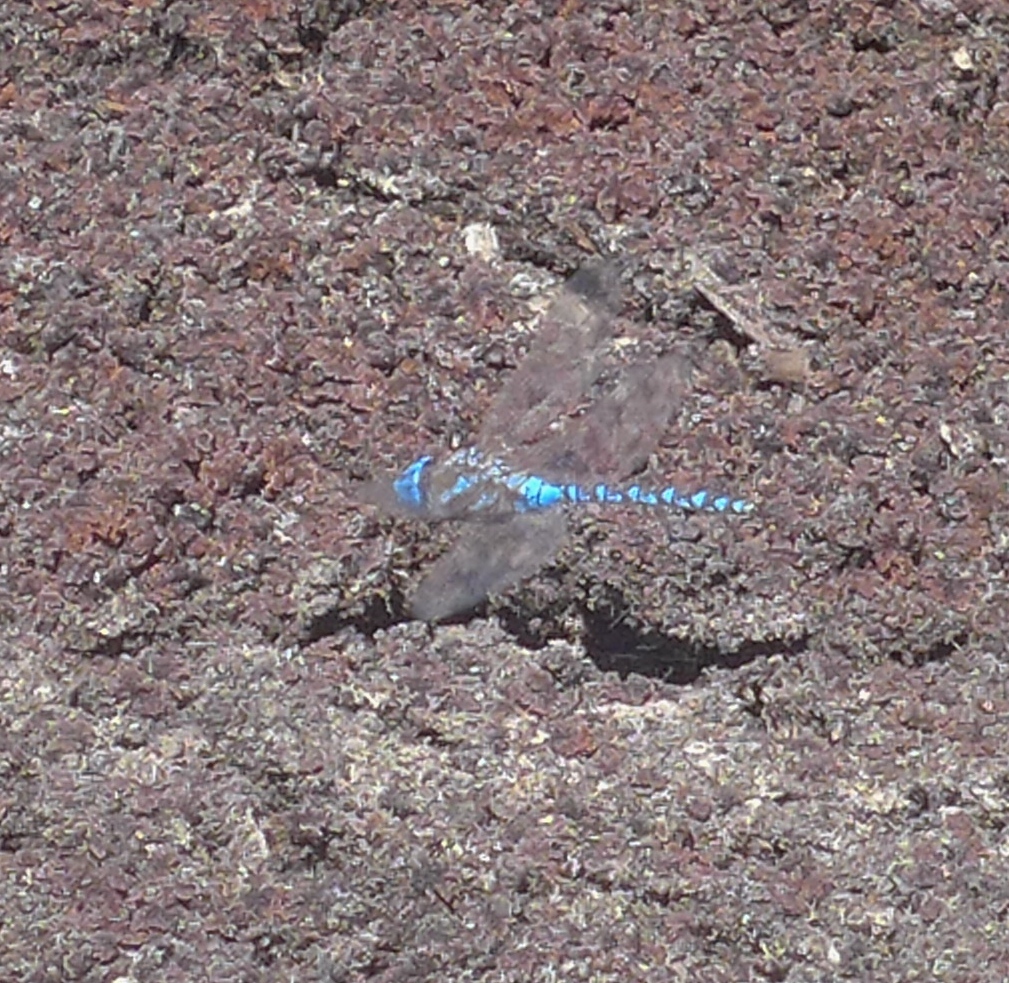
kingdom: Animalia
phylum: Arthropoda
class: Insecta
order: Odonata
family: Aeshnidae
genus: Rhionaeschna
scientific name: Rhionaeschna multicolor
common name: Blue-eyed darner
